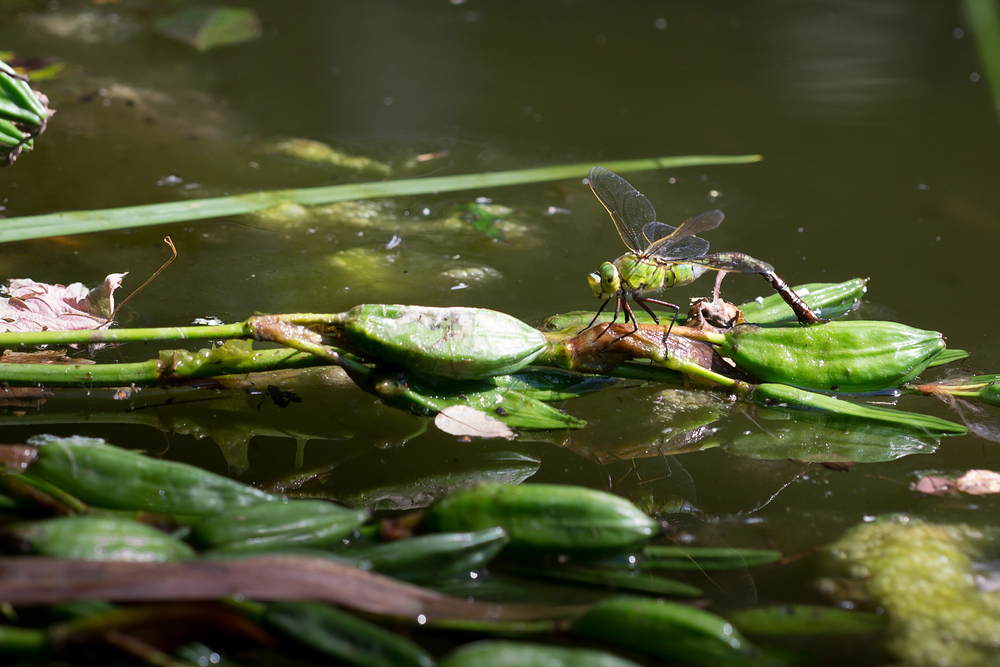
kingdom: Animalia
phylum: Arthropoda
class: Insecta
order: Odonata
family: Aeshnidae
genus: Anax
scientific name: Anax imperator
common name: Emperor dragonfly
